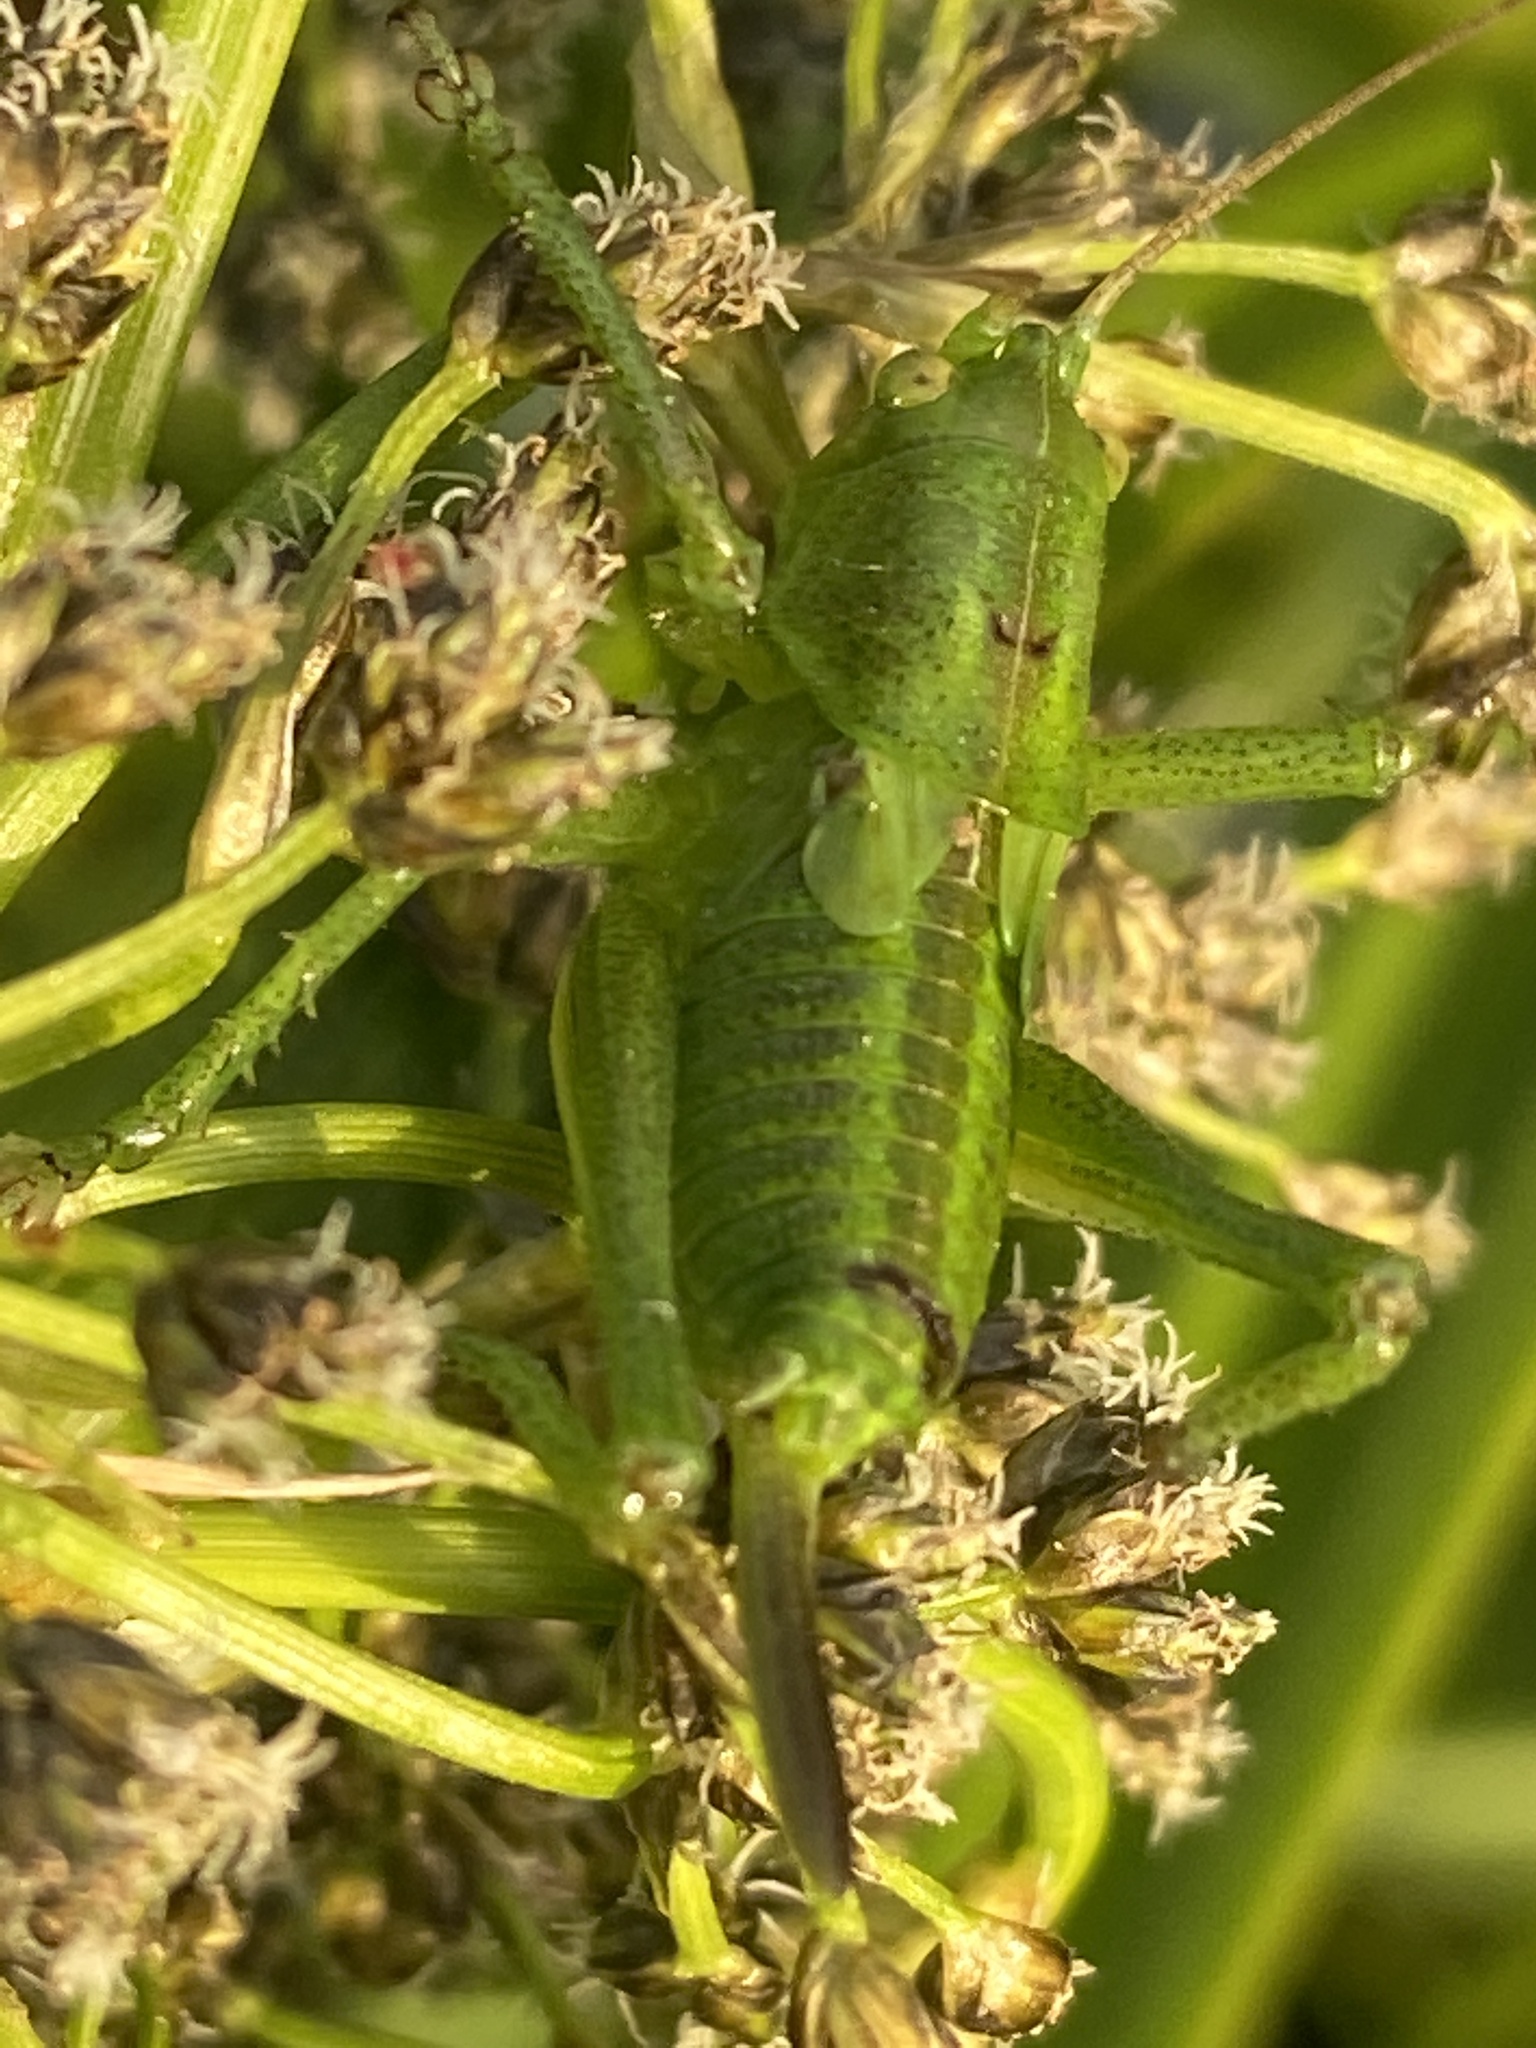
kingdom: Animalia
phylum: Arthropoda
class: Insecta
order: Orthoptera
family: Tettigoniidae
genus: Tettigonia
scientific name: Tettigonia cantans
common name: Upland green bush-cricket
